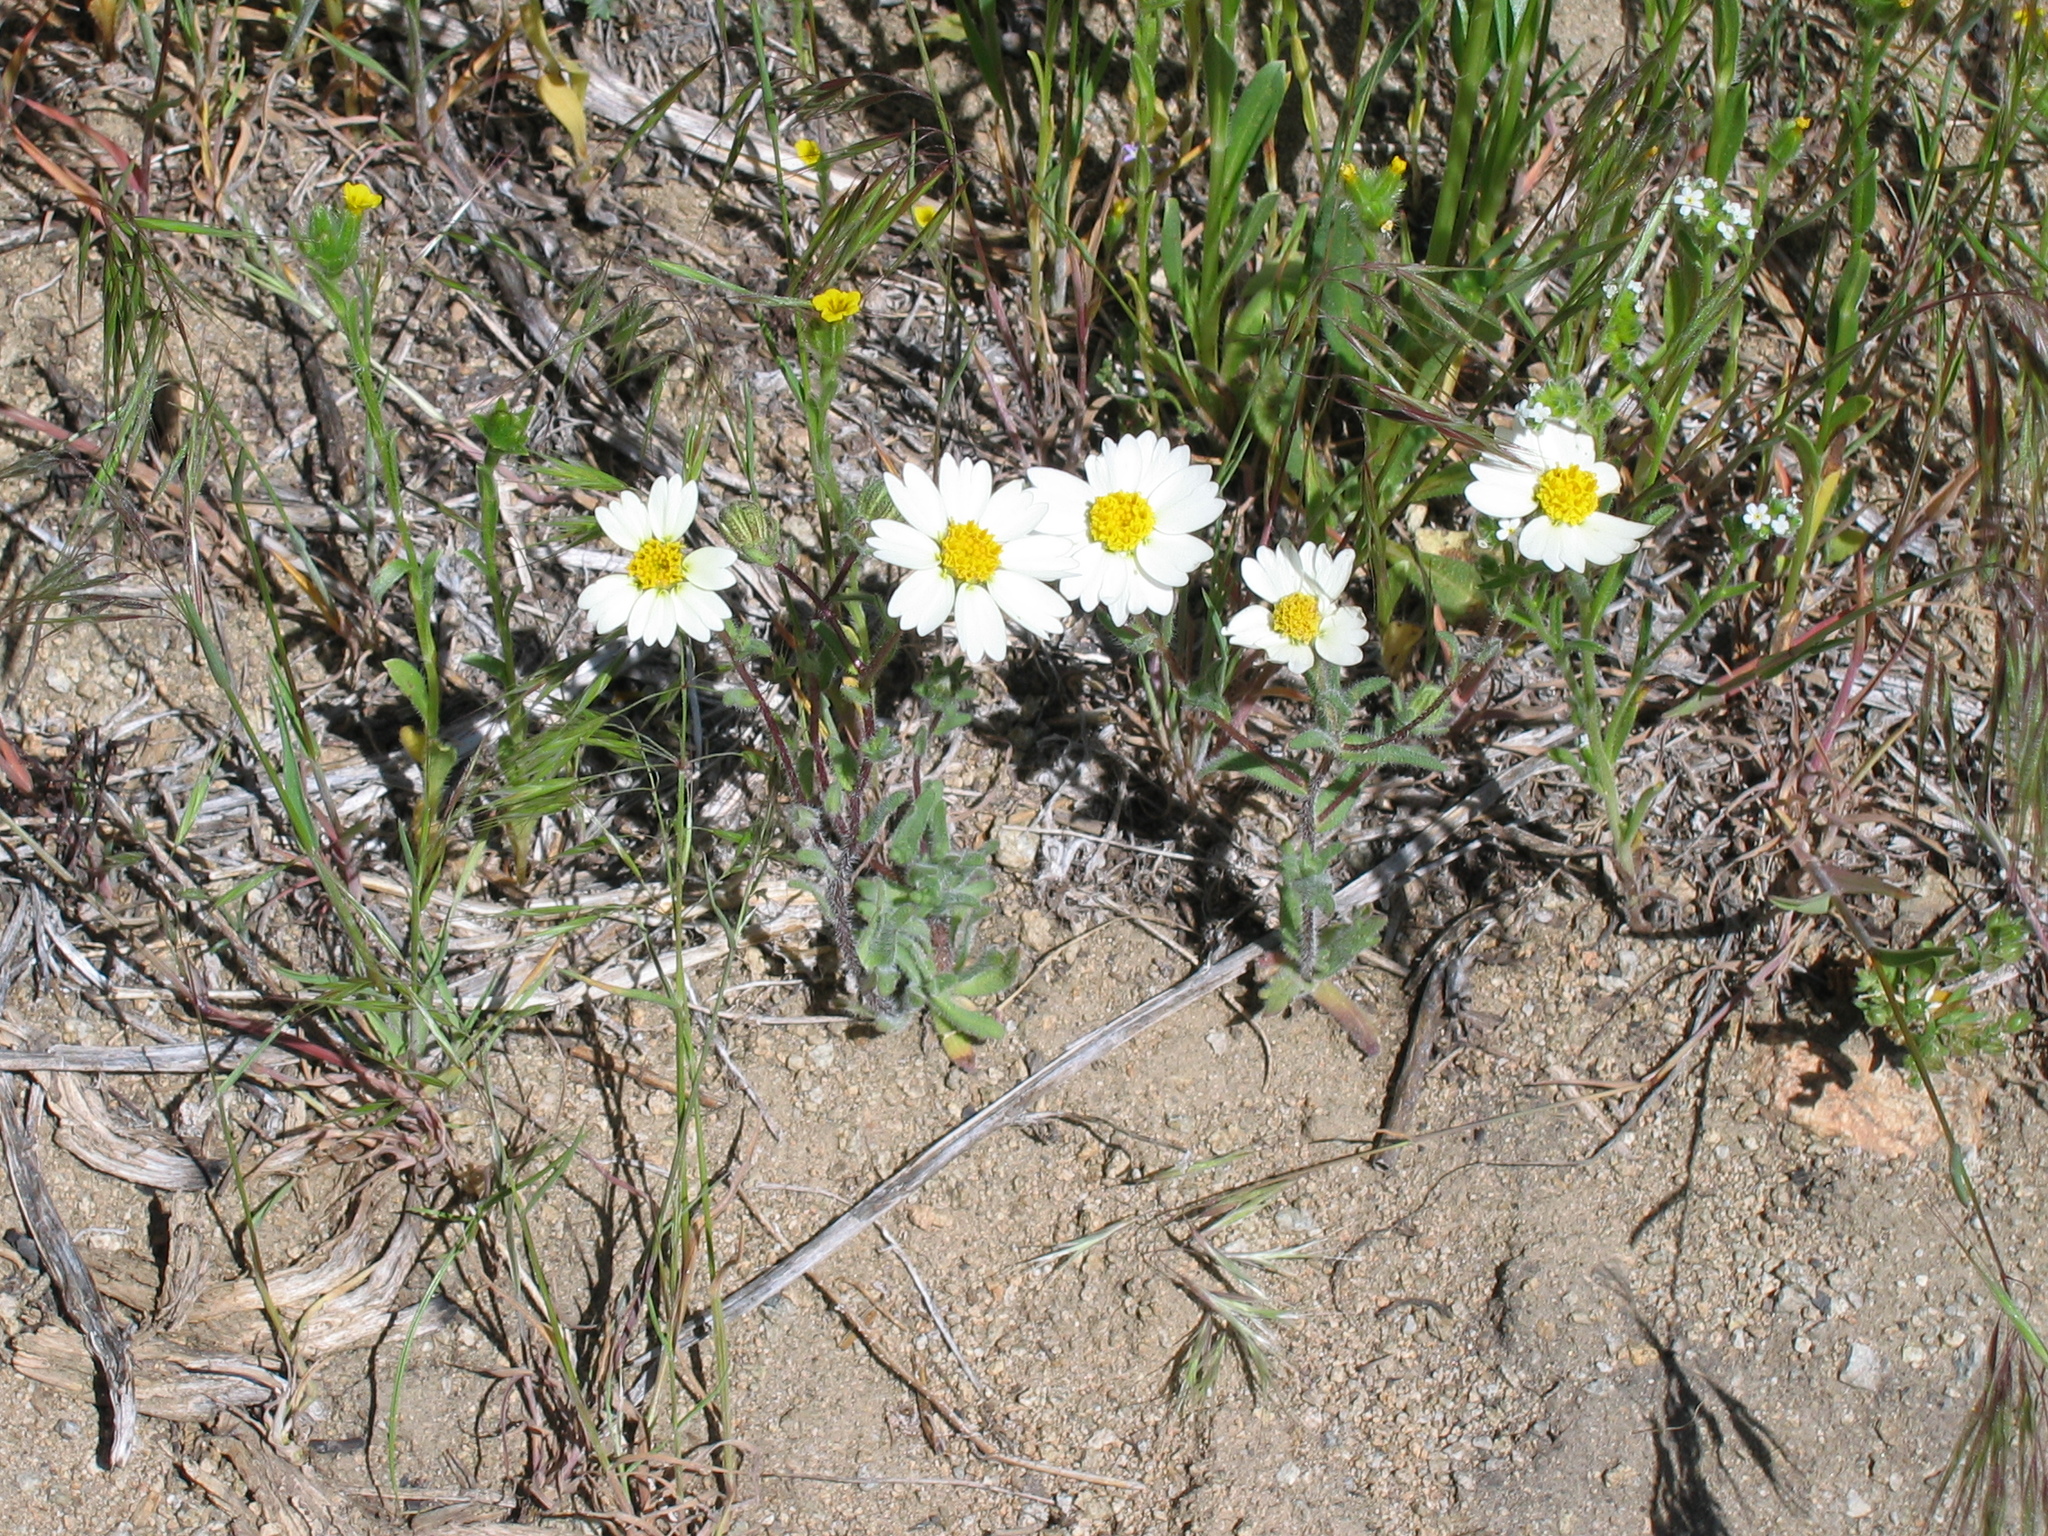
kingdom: Plantae
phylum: Tracheophyta
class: Magnoliopsida
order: Asterales
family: Asteraceae
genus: Layia
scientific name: Layia glandulosa
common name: White layia
